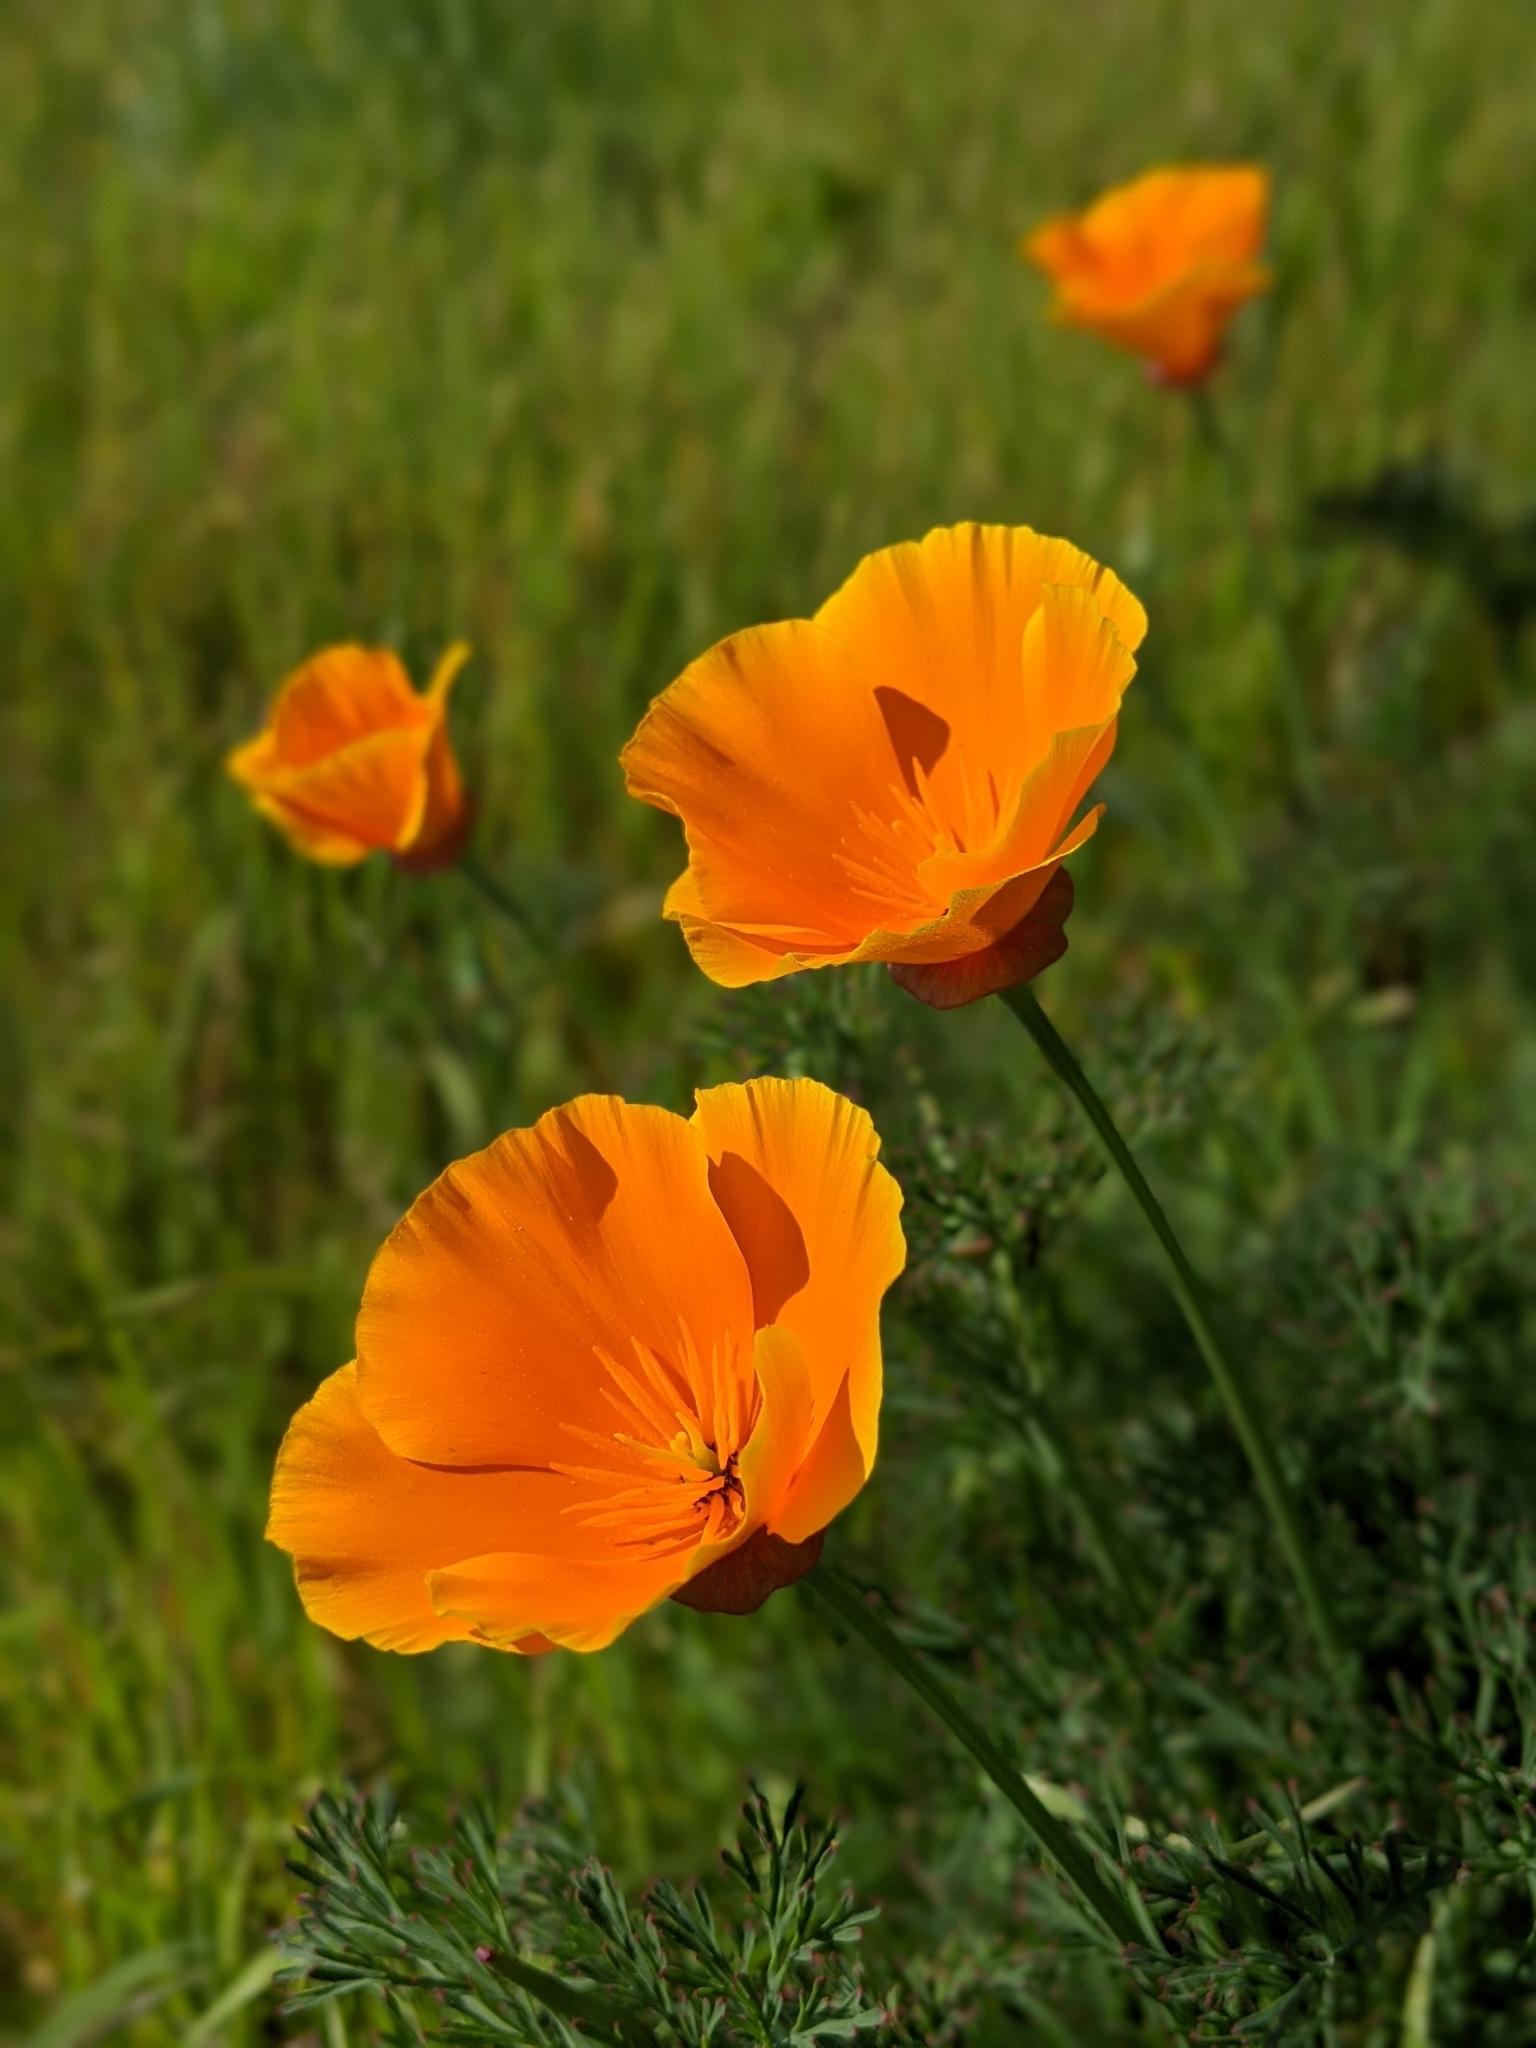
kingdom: Plantae
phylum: Tracheophyta
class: Magnoliopsida
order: Ranunculales
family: Papaveraceae
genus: Eschscholzia
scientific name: Eschscholzia californica
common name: California poppy
